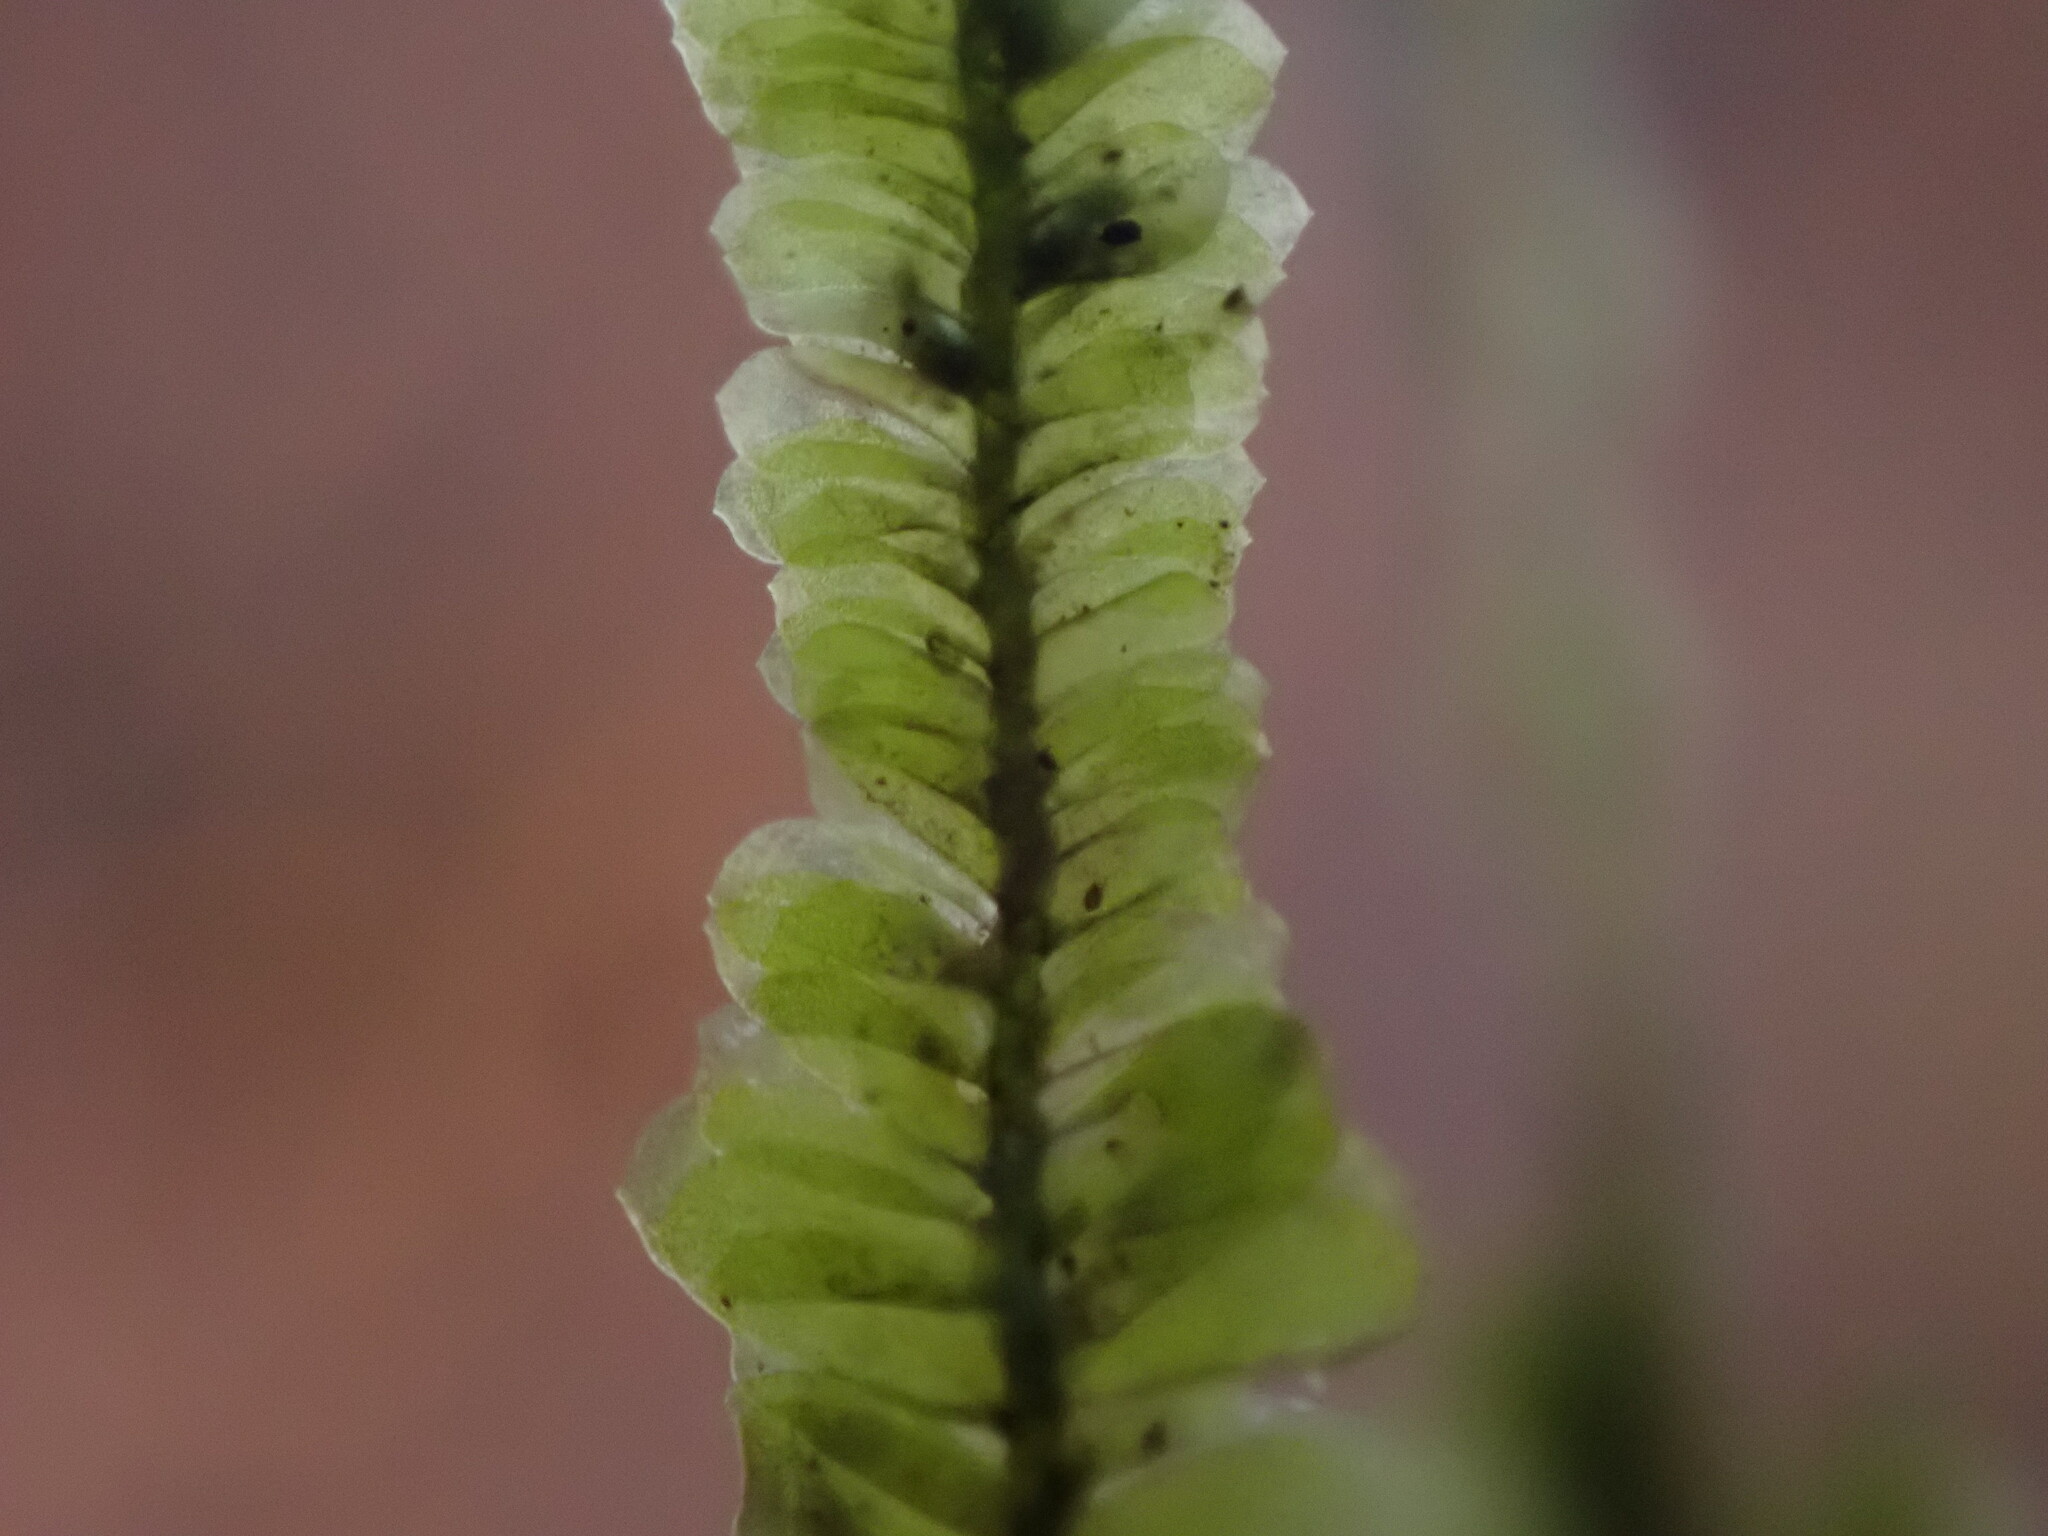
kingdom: Plantae
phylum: Bryophyta
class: Bryopsida
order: Hypnales
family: Neckeraceae
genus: Planicladium
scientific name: Planicladium nitidulum
